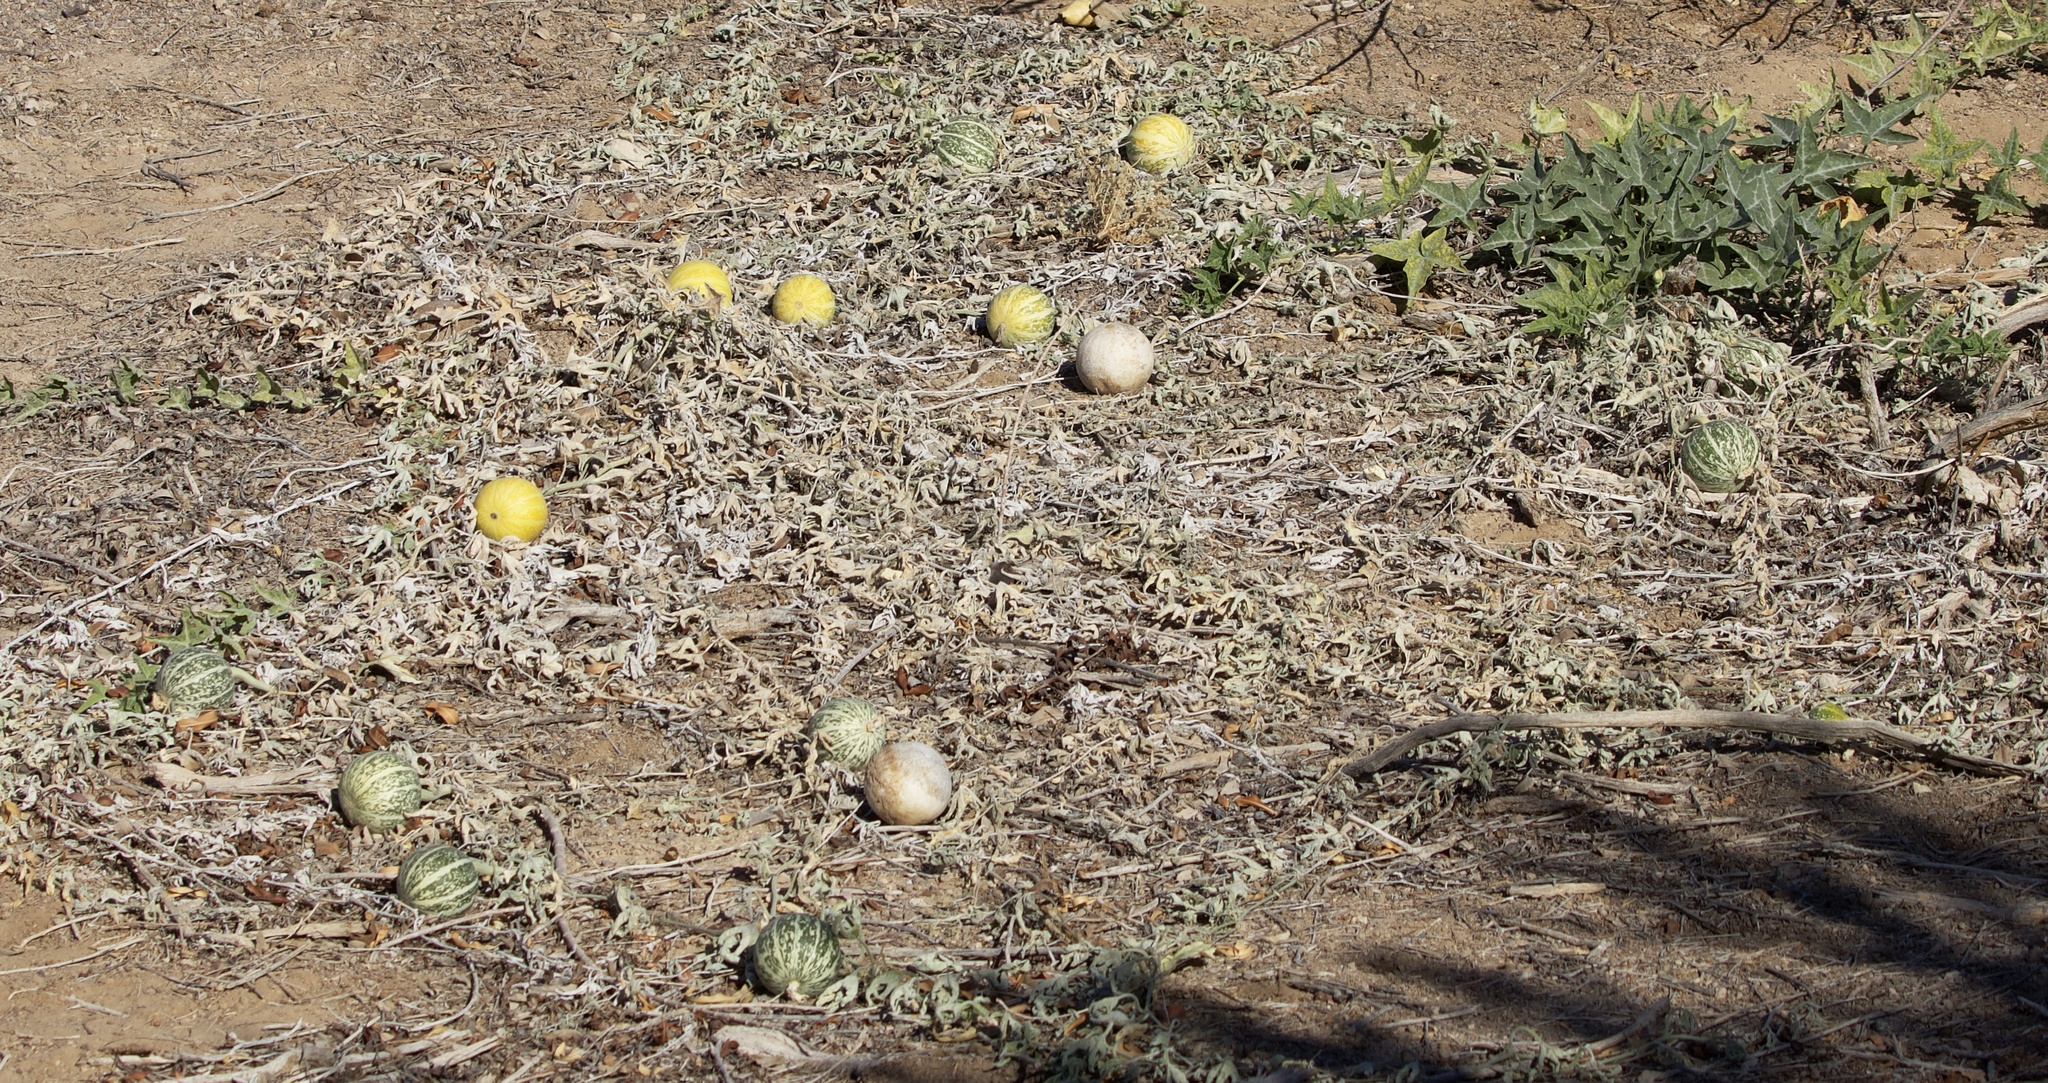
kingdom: Plantae
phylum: Tracheophyta
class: Magnoliopsida
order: Cucurbitales
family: Cucurbitaceae
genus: Cucurbita
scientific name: Cucurbita palmata
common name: Coyote-melon
